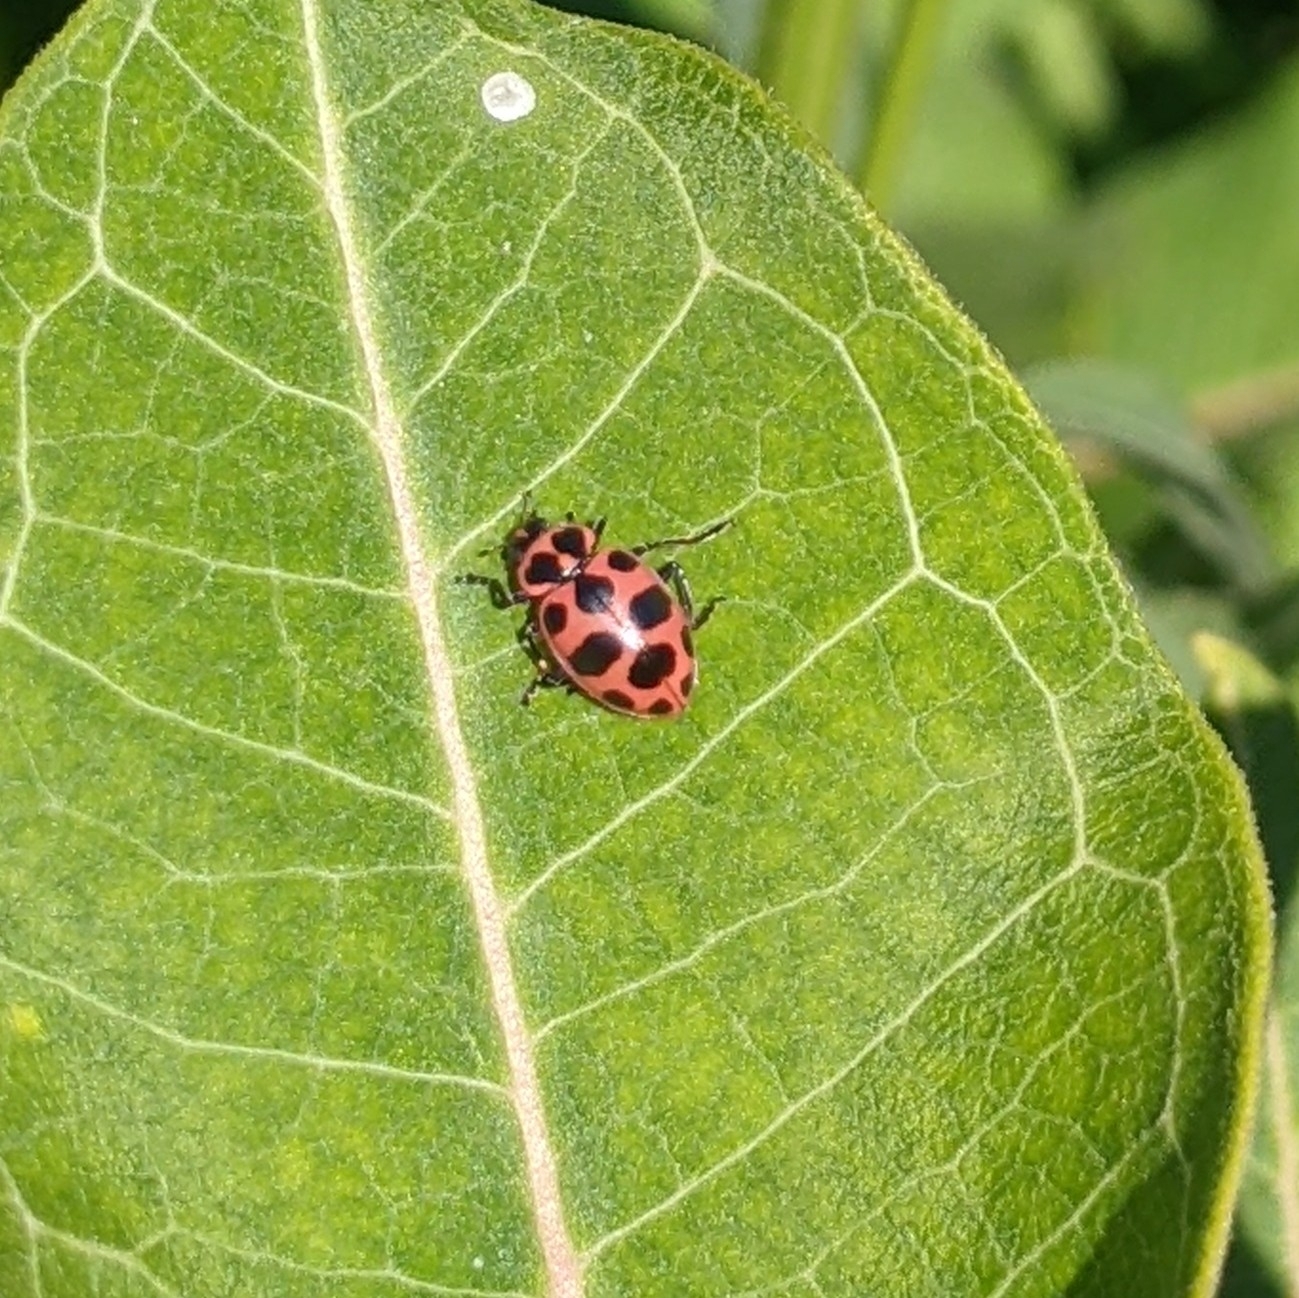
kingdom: Animalia
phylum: Arthropoda
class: Insecta
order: Coleoptera
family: Coccinellidae
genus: Coleomegilla
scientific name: Coleomegilla maculata
